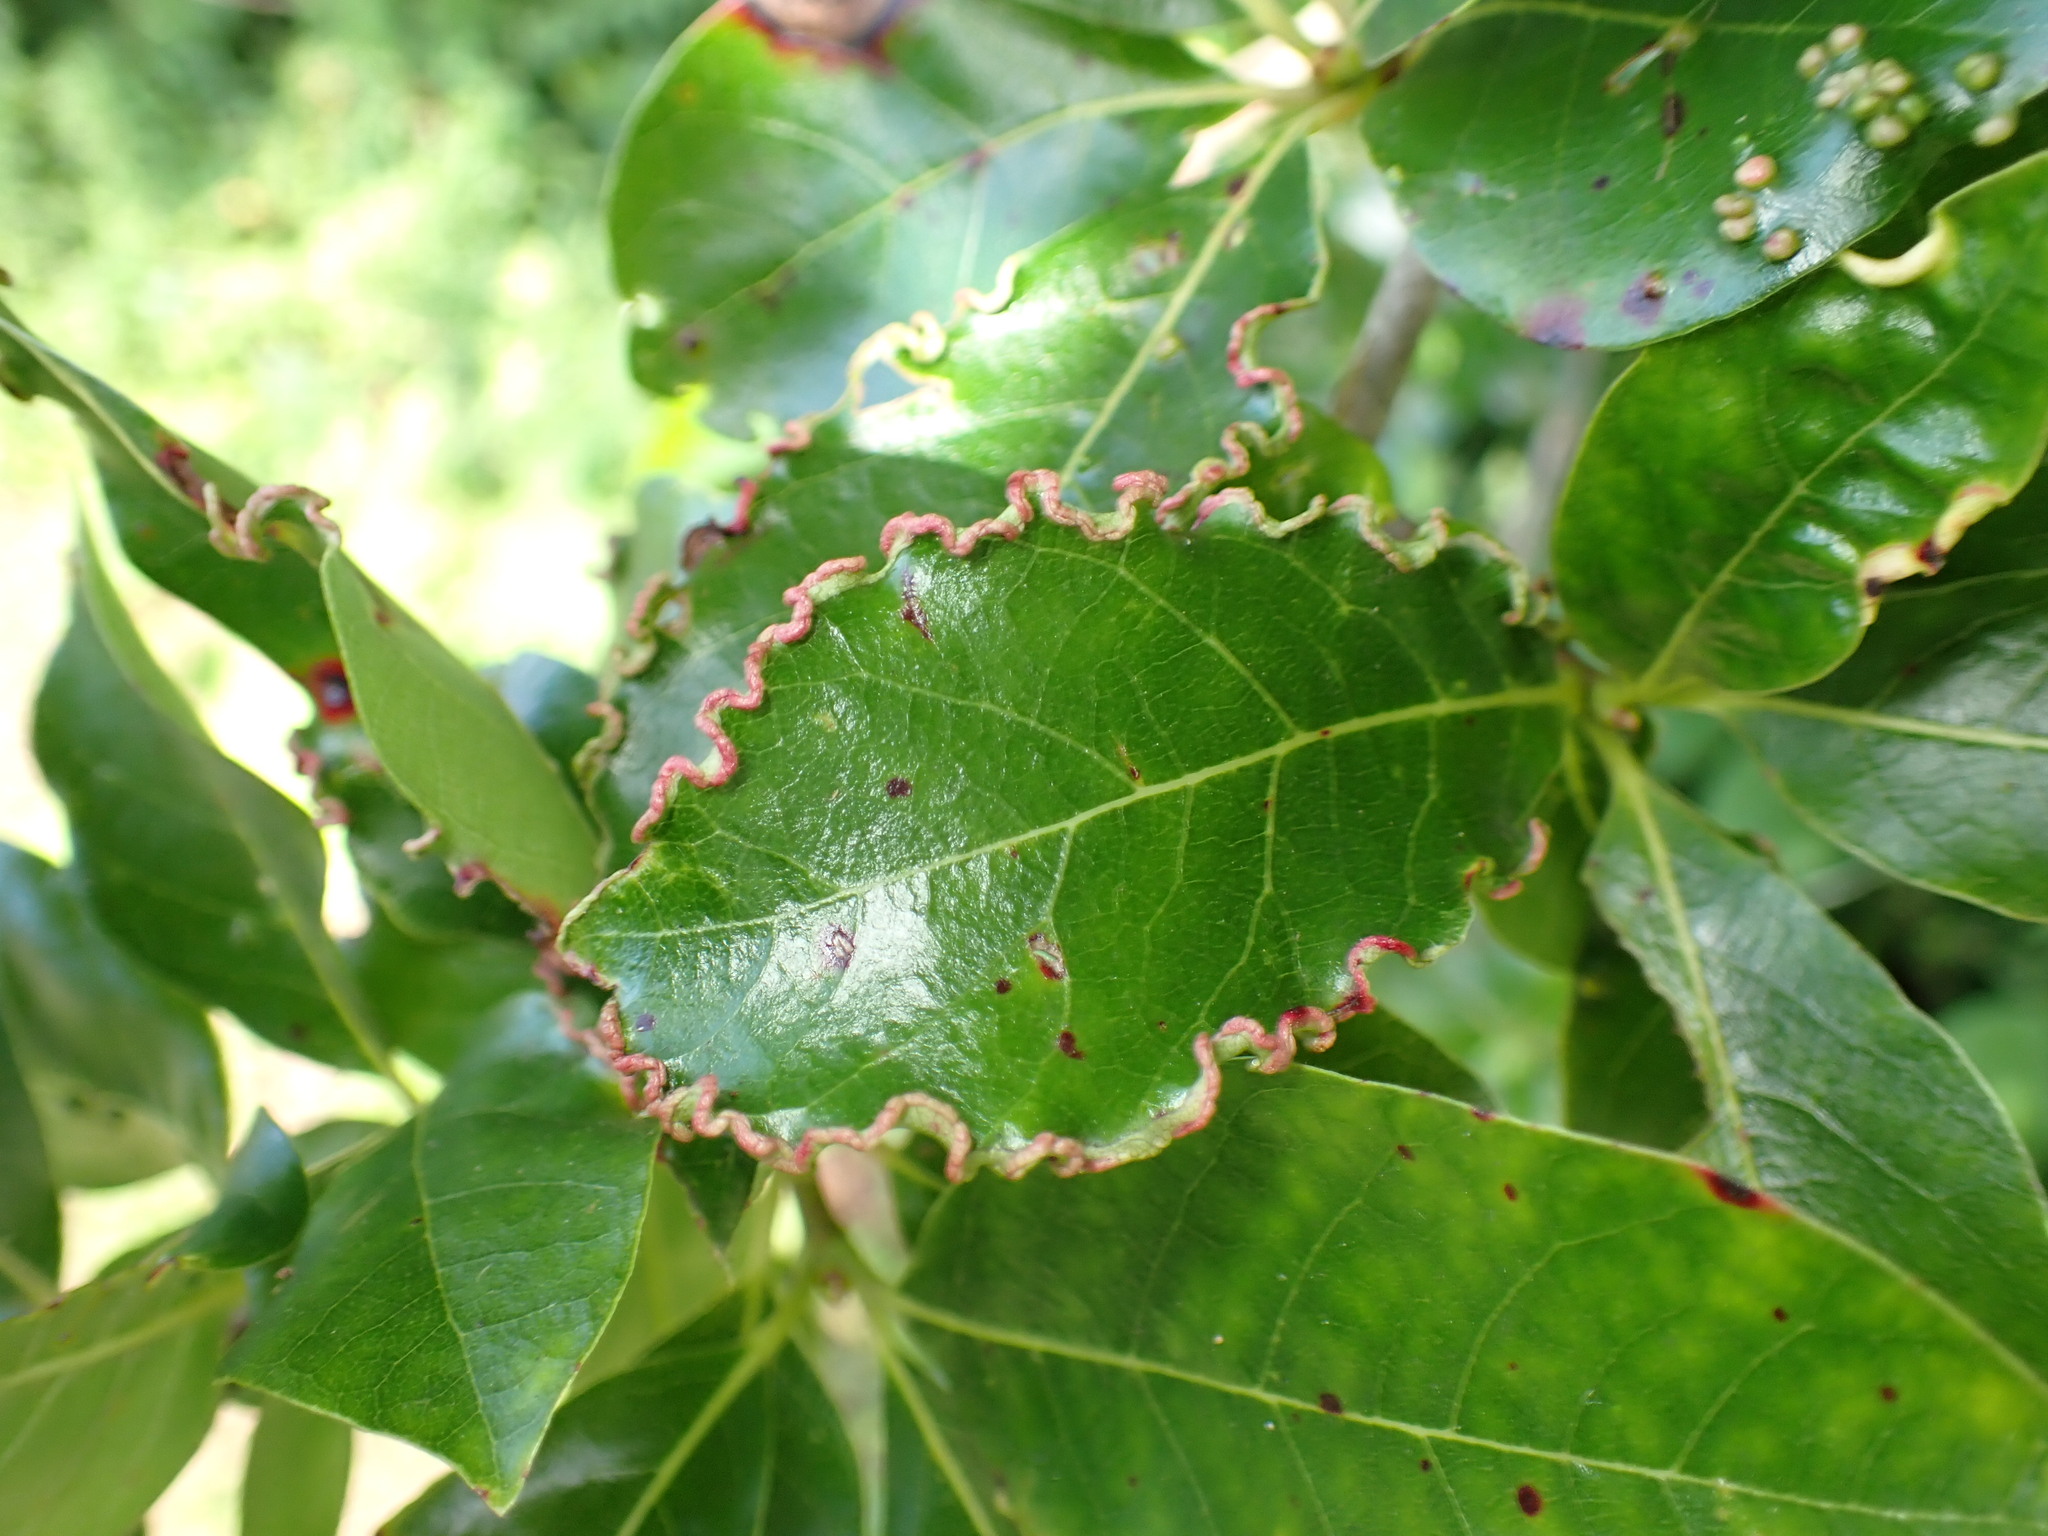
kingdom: Animalia
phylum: Arthropoda
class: Arachnida
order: Trombidiformes
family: Eriophyidae
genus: Aceria
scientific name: Aceria
